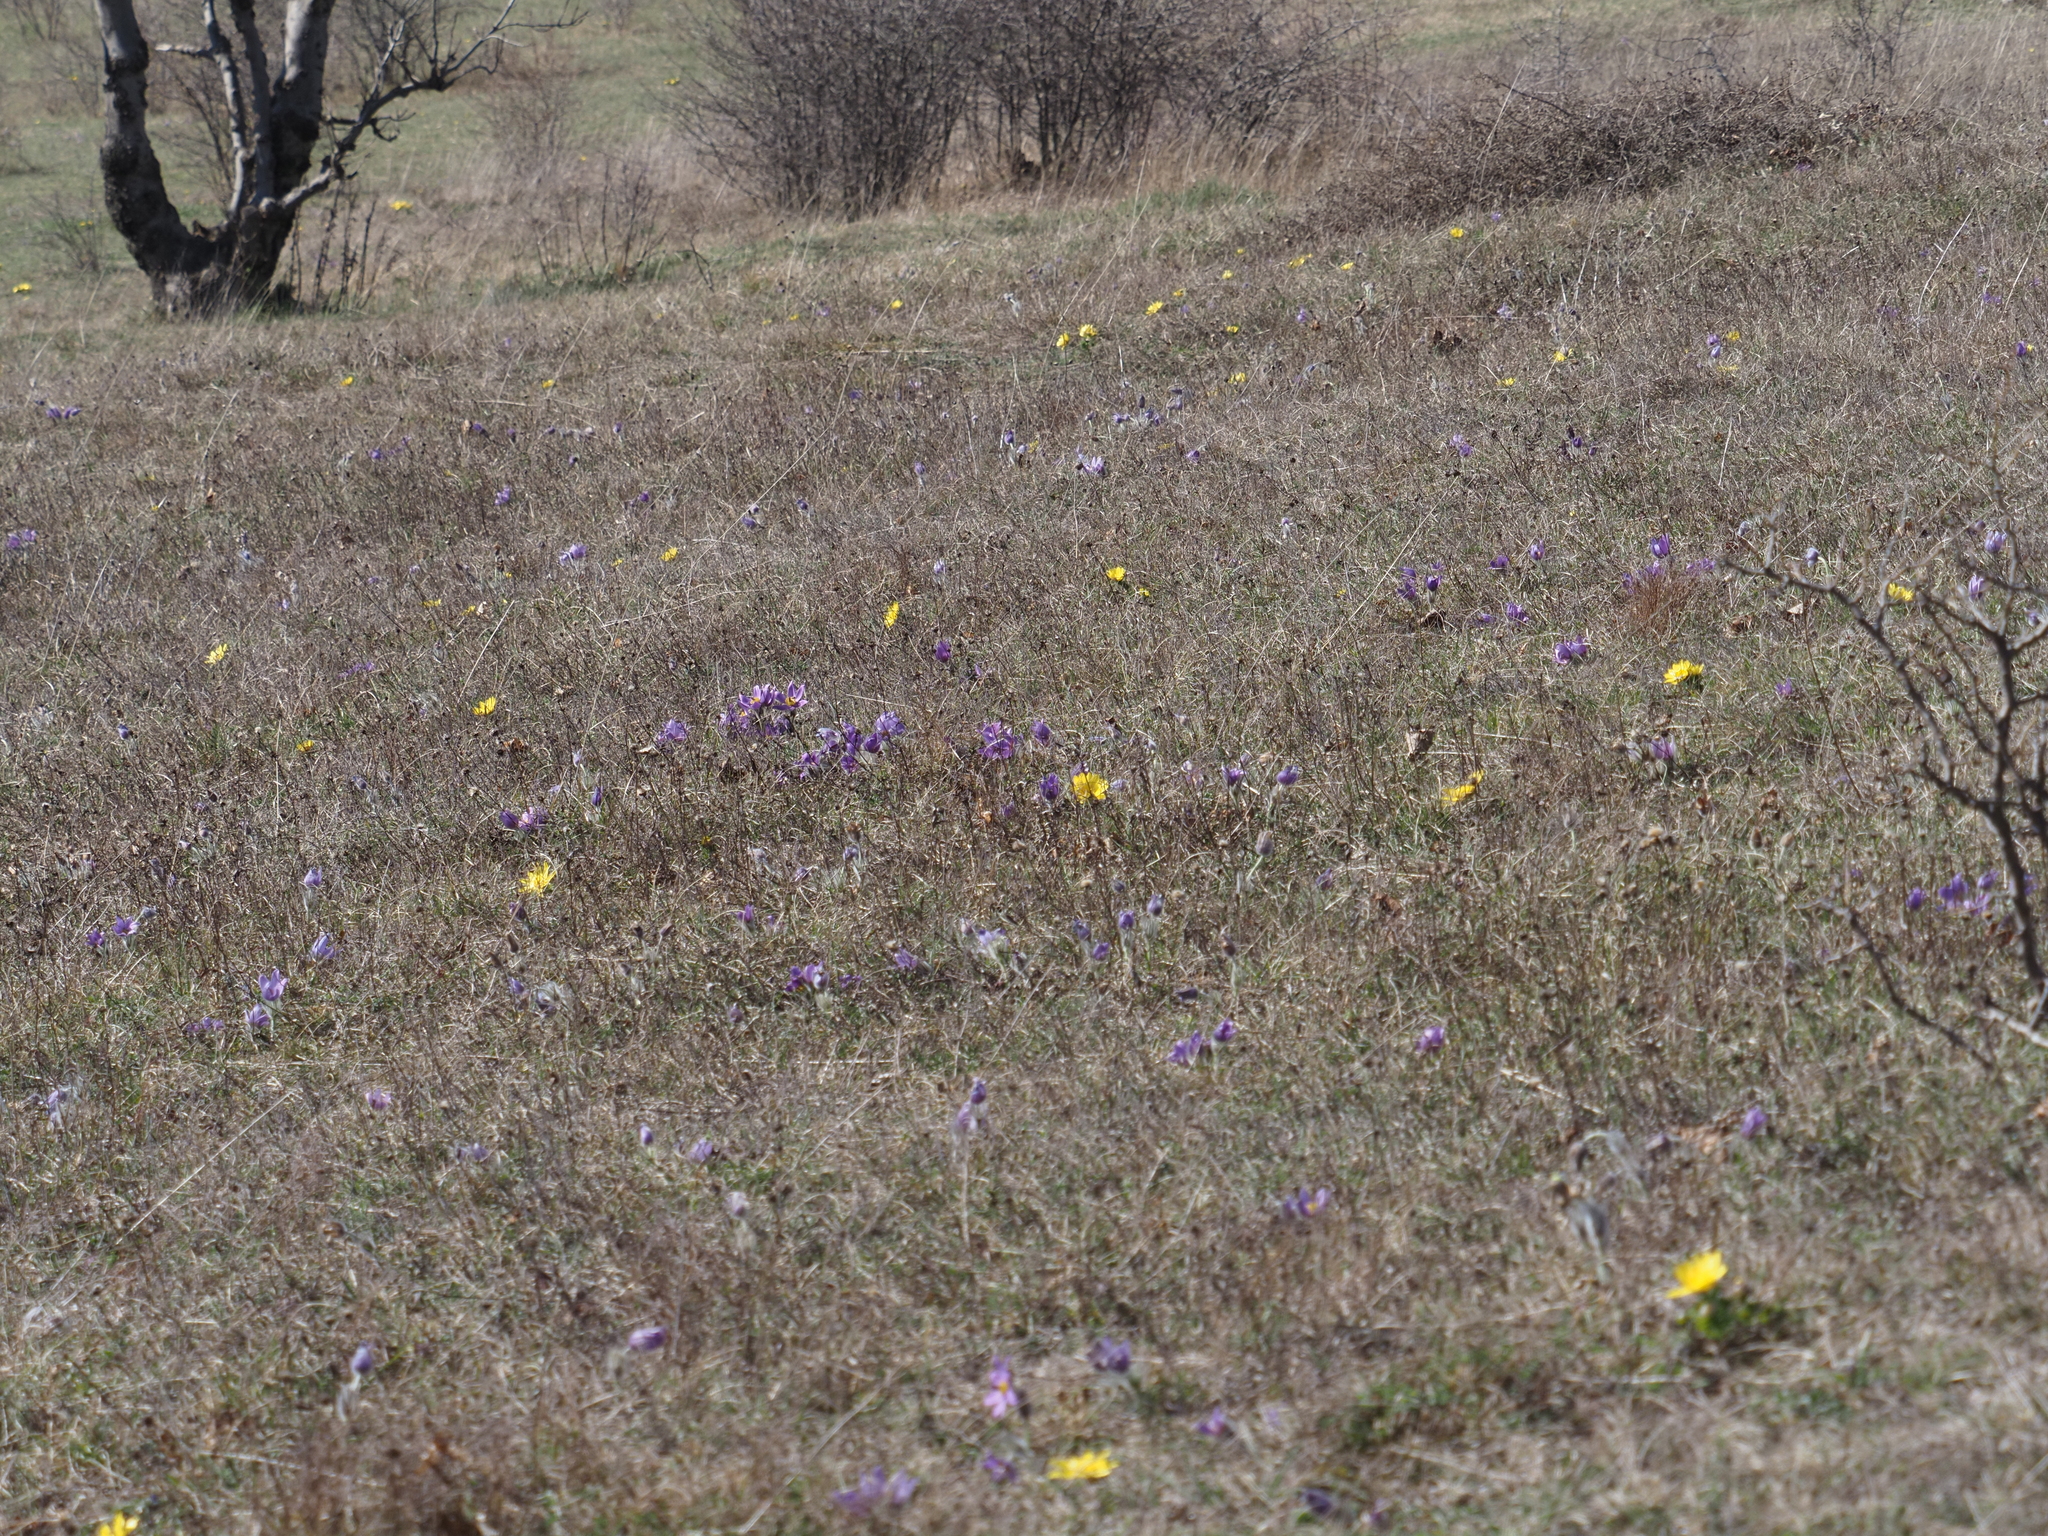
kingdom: Plantae
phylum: Tracheophyta
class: Magnoliopsida
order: Ranunculales
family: Ranunculaceae
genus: Adonis
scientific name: Adonis vernalis
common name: Yellow pheasants-eye
